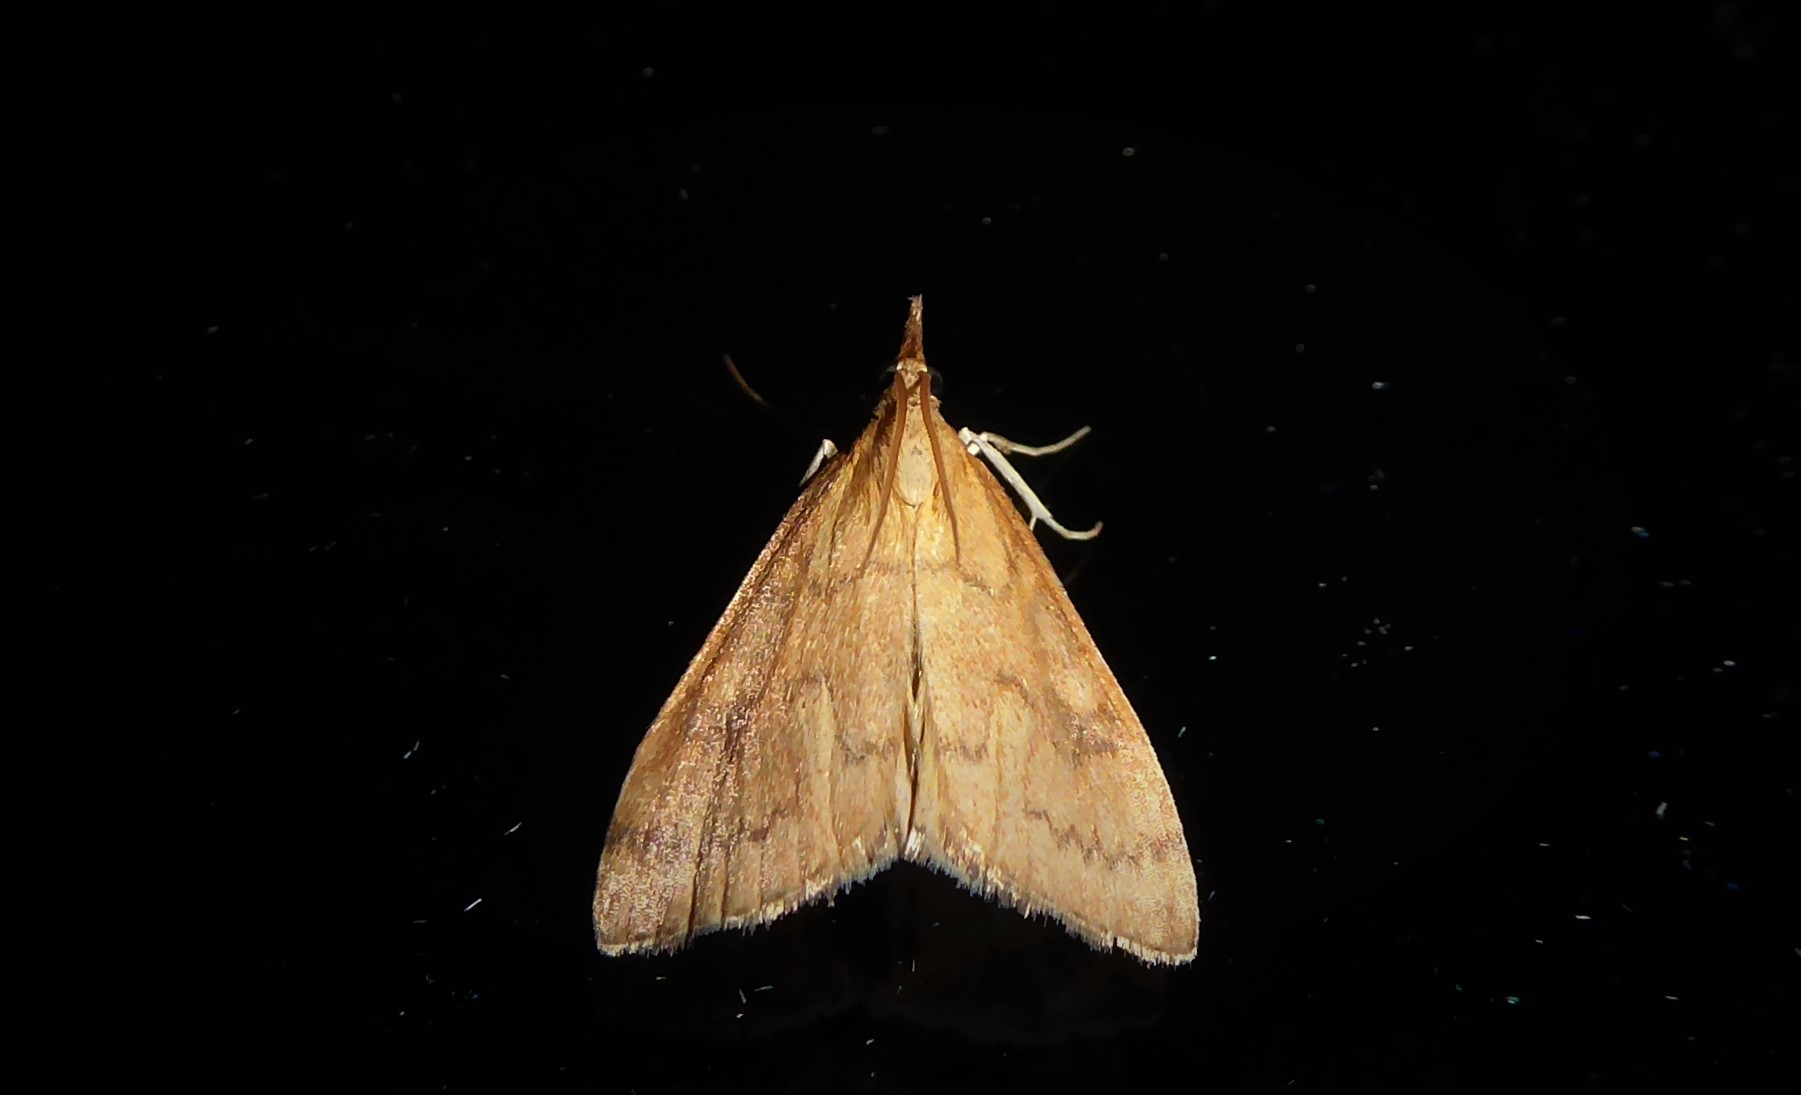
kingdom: Animalia
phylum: Arthropoda
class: Insecta
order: Lepidoptera
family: Crambidae
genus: Udea
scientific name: Udea Mnesictena flavidalis
